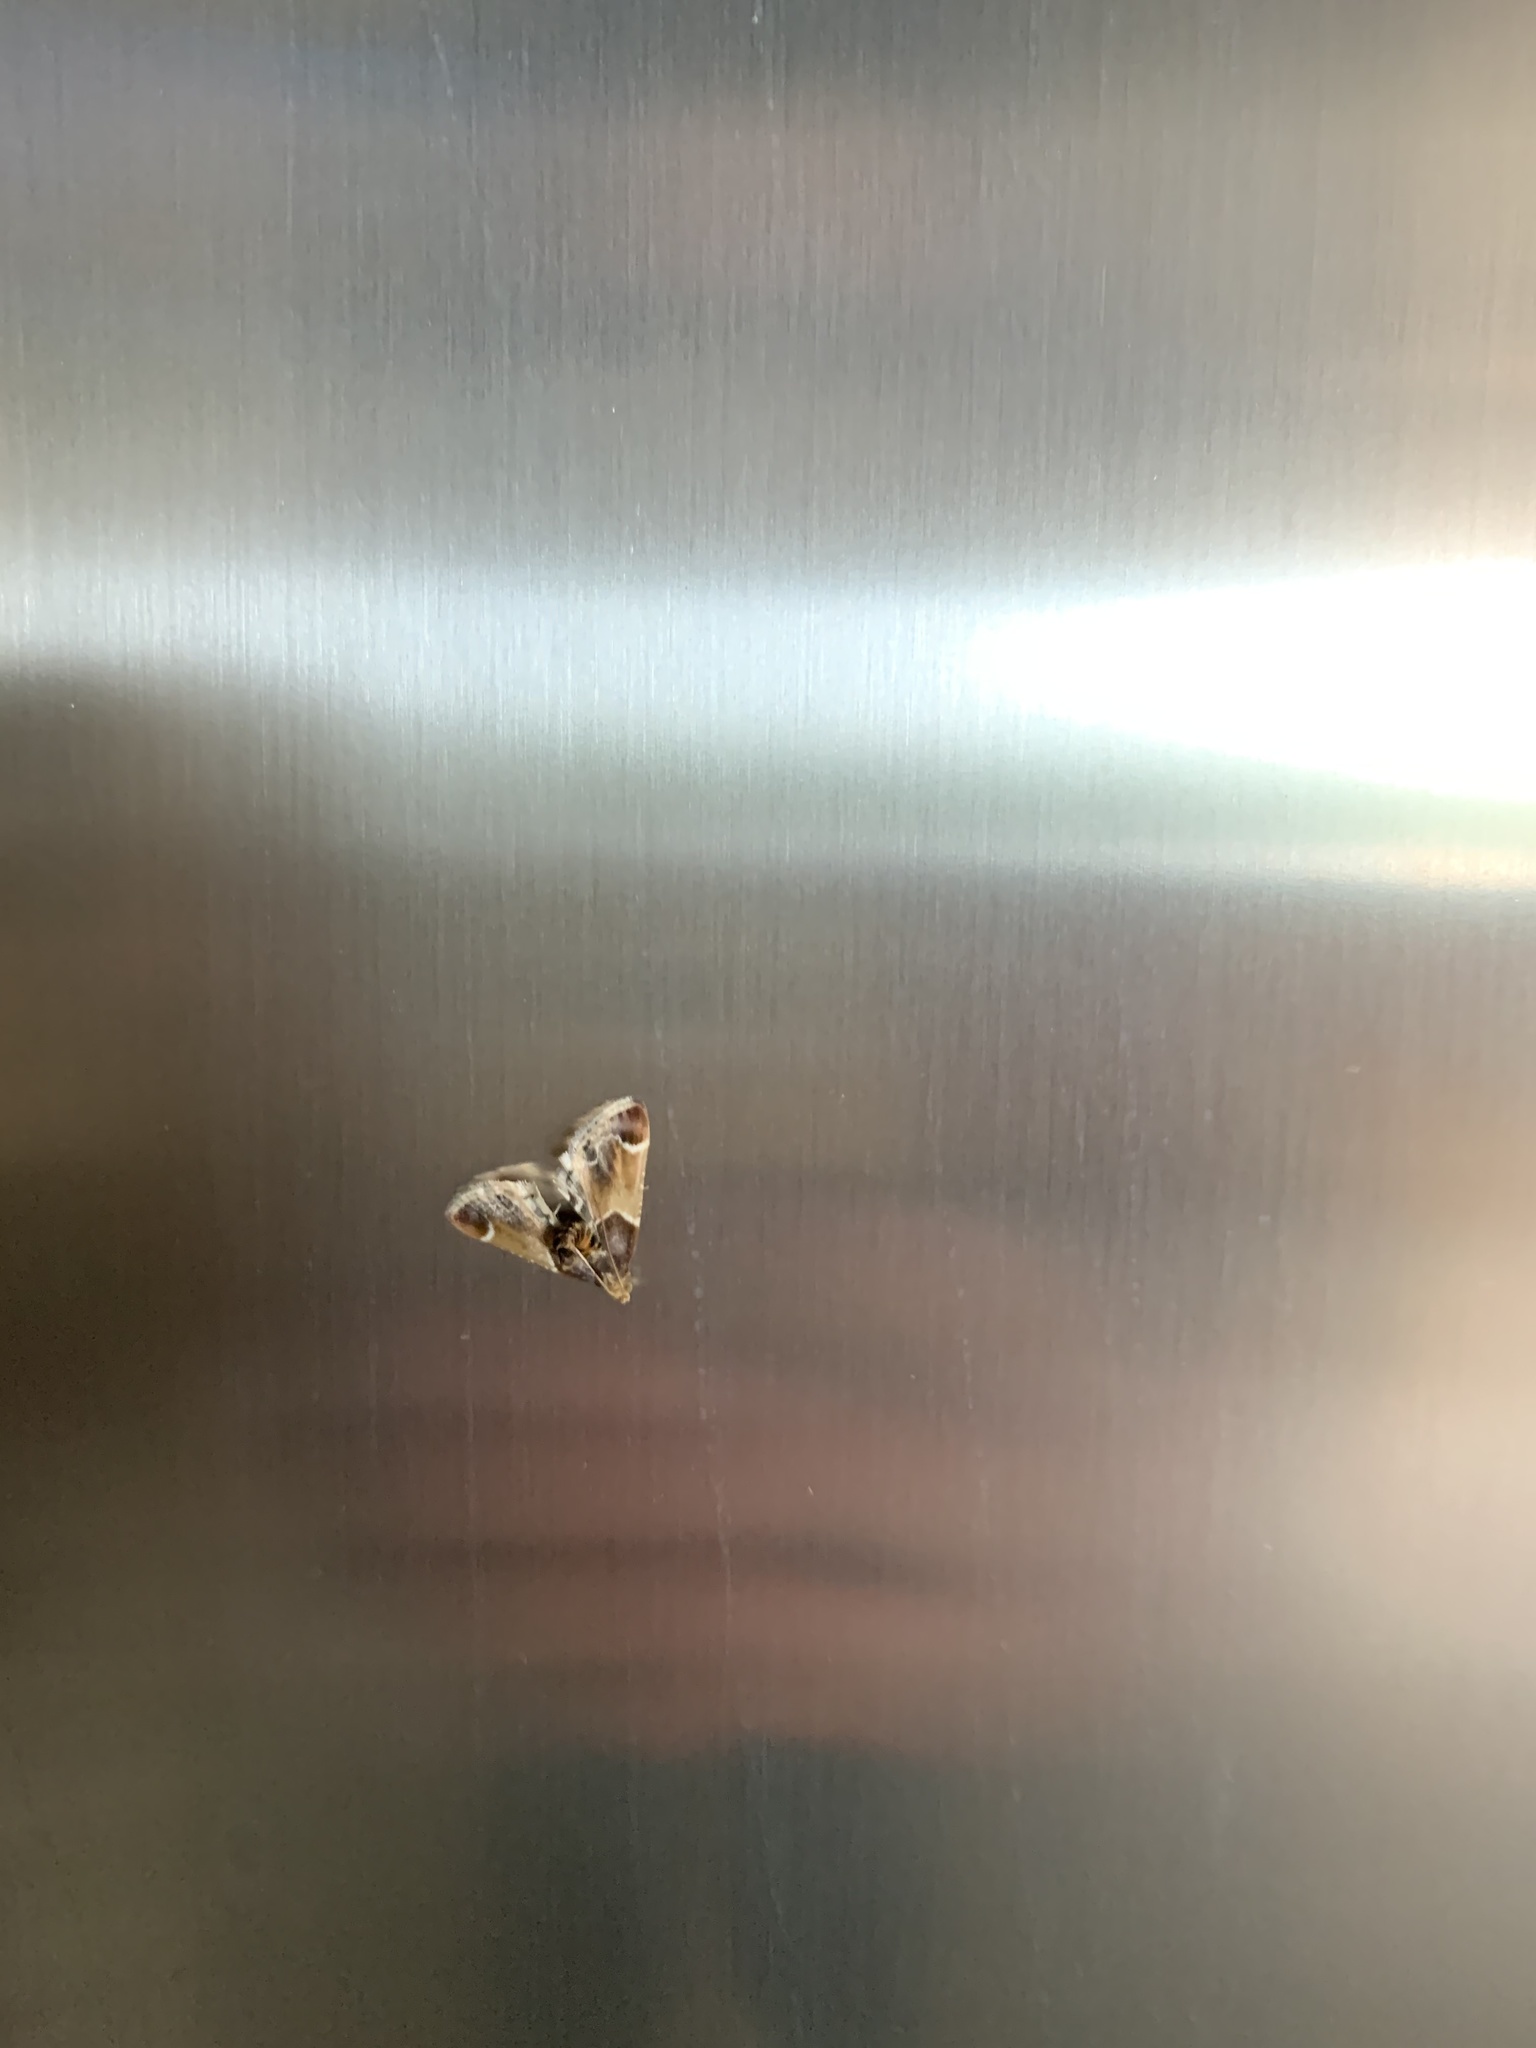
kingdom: Animalia
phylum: Arthropoda
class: Insecta
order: Lepidoptera
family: Pyralidae
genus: Pyralis
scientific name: Pyralis farinalis
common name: Meal moth
